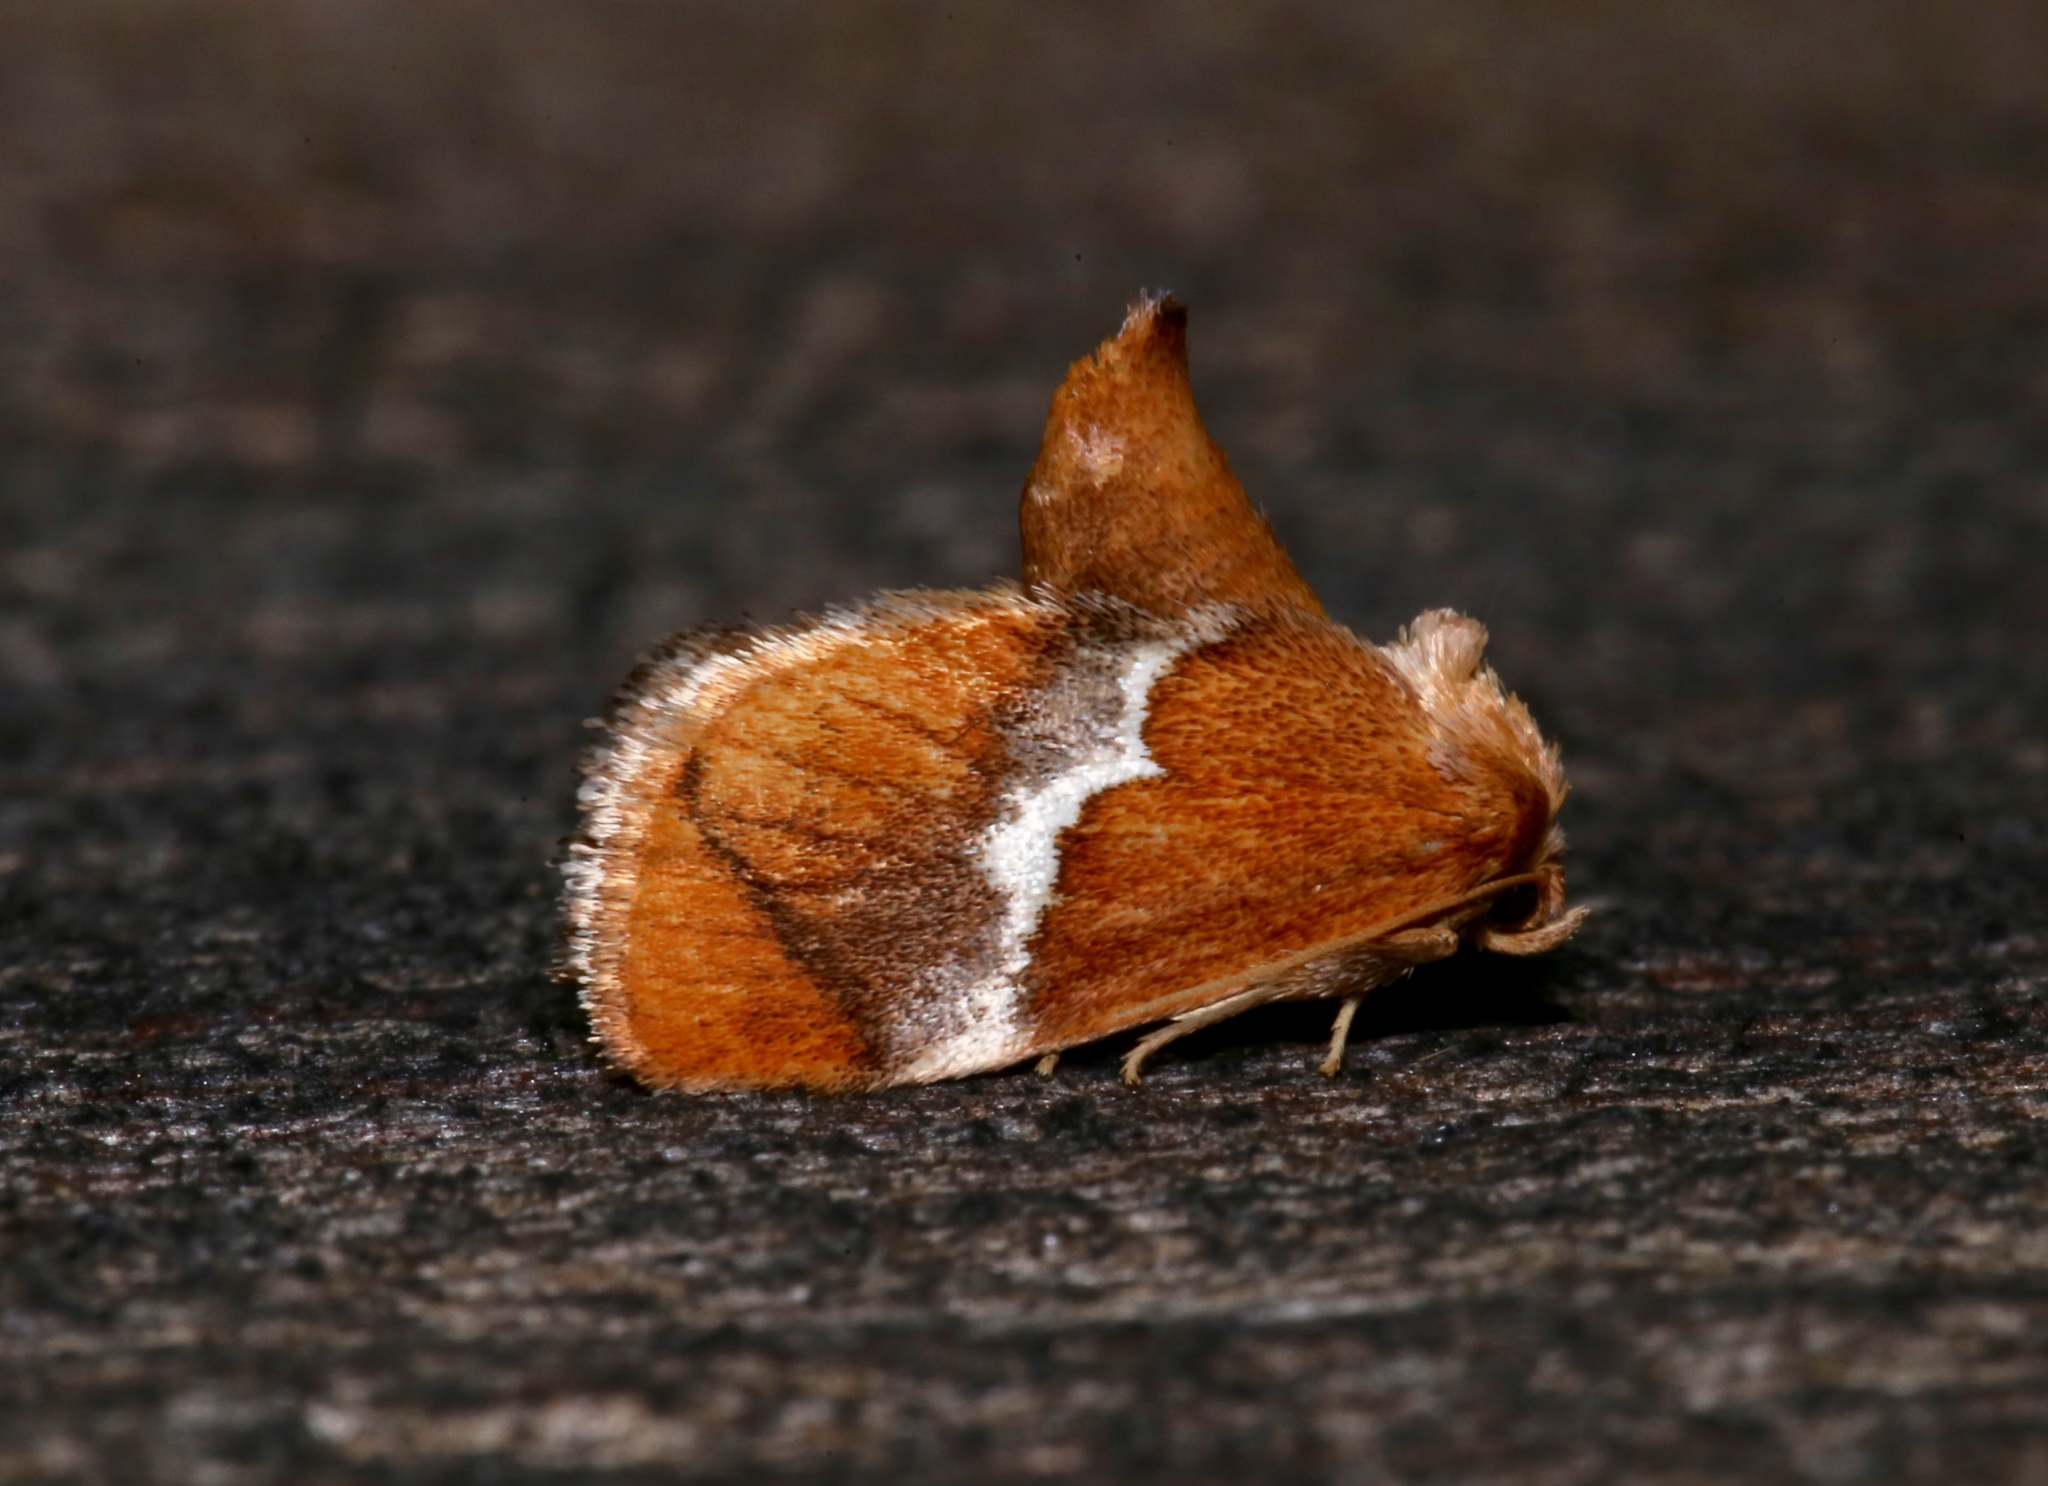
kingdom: Animalia
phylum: Arthropoda
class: Insecta
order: Lepidoptera
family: Limacodidae
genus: Lithacodes
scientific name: Lithacodes fasciola
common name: Yellow-shouldered slug moth
